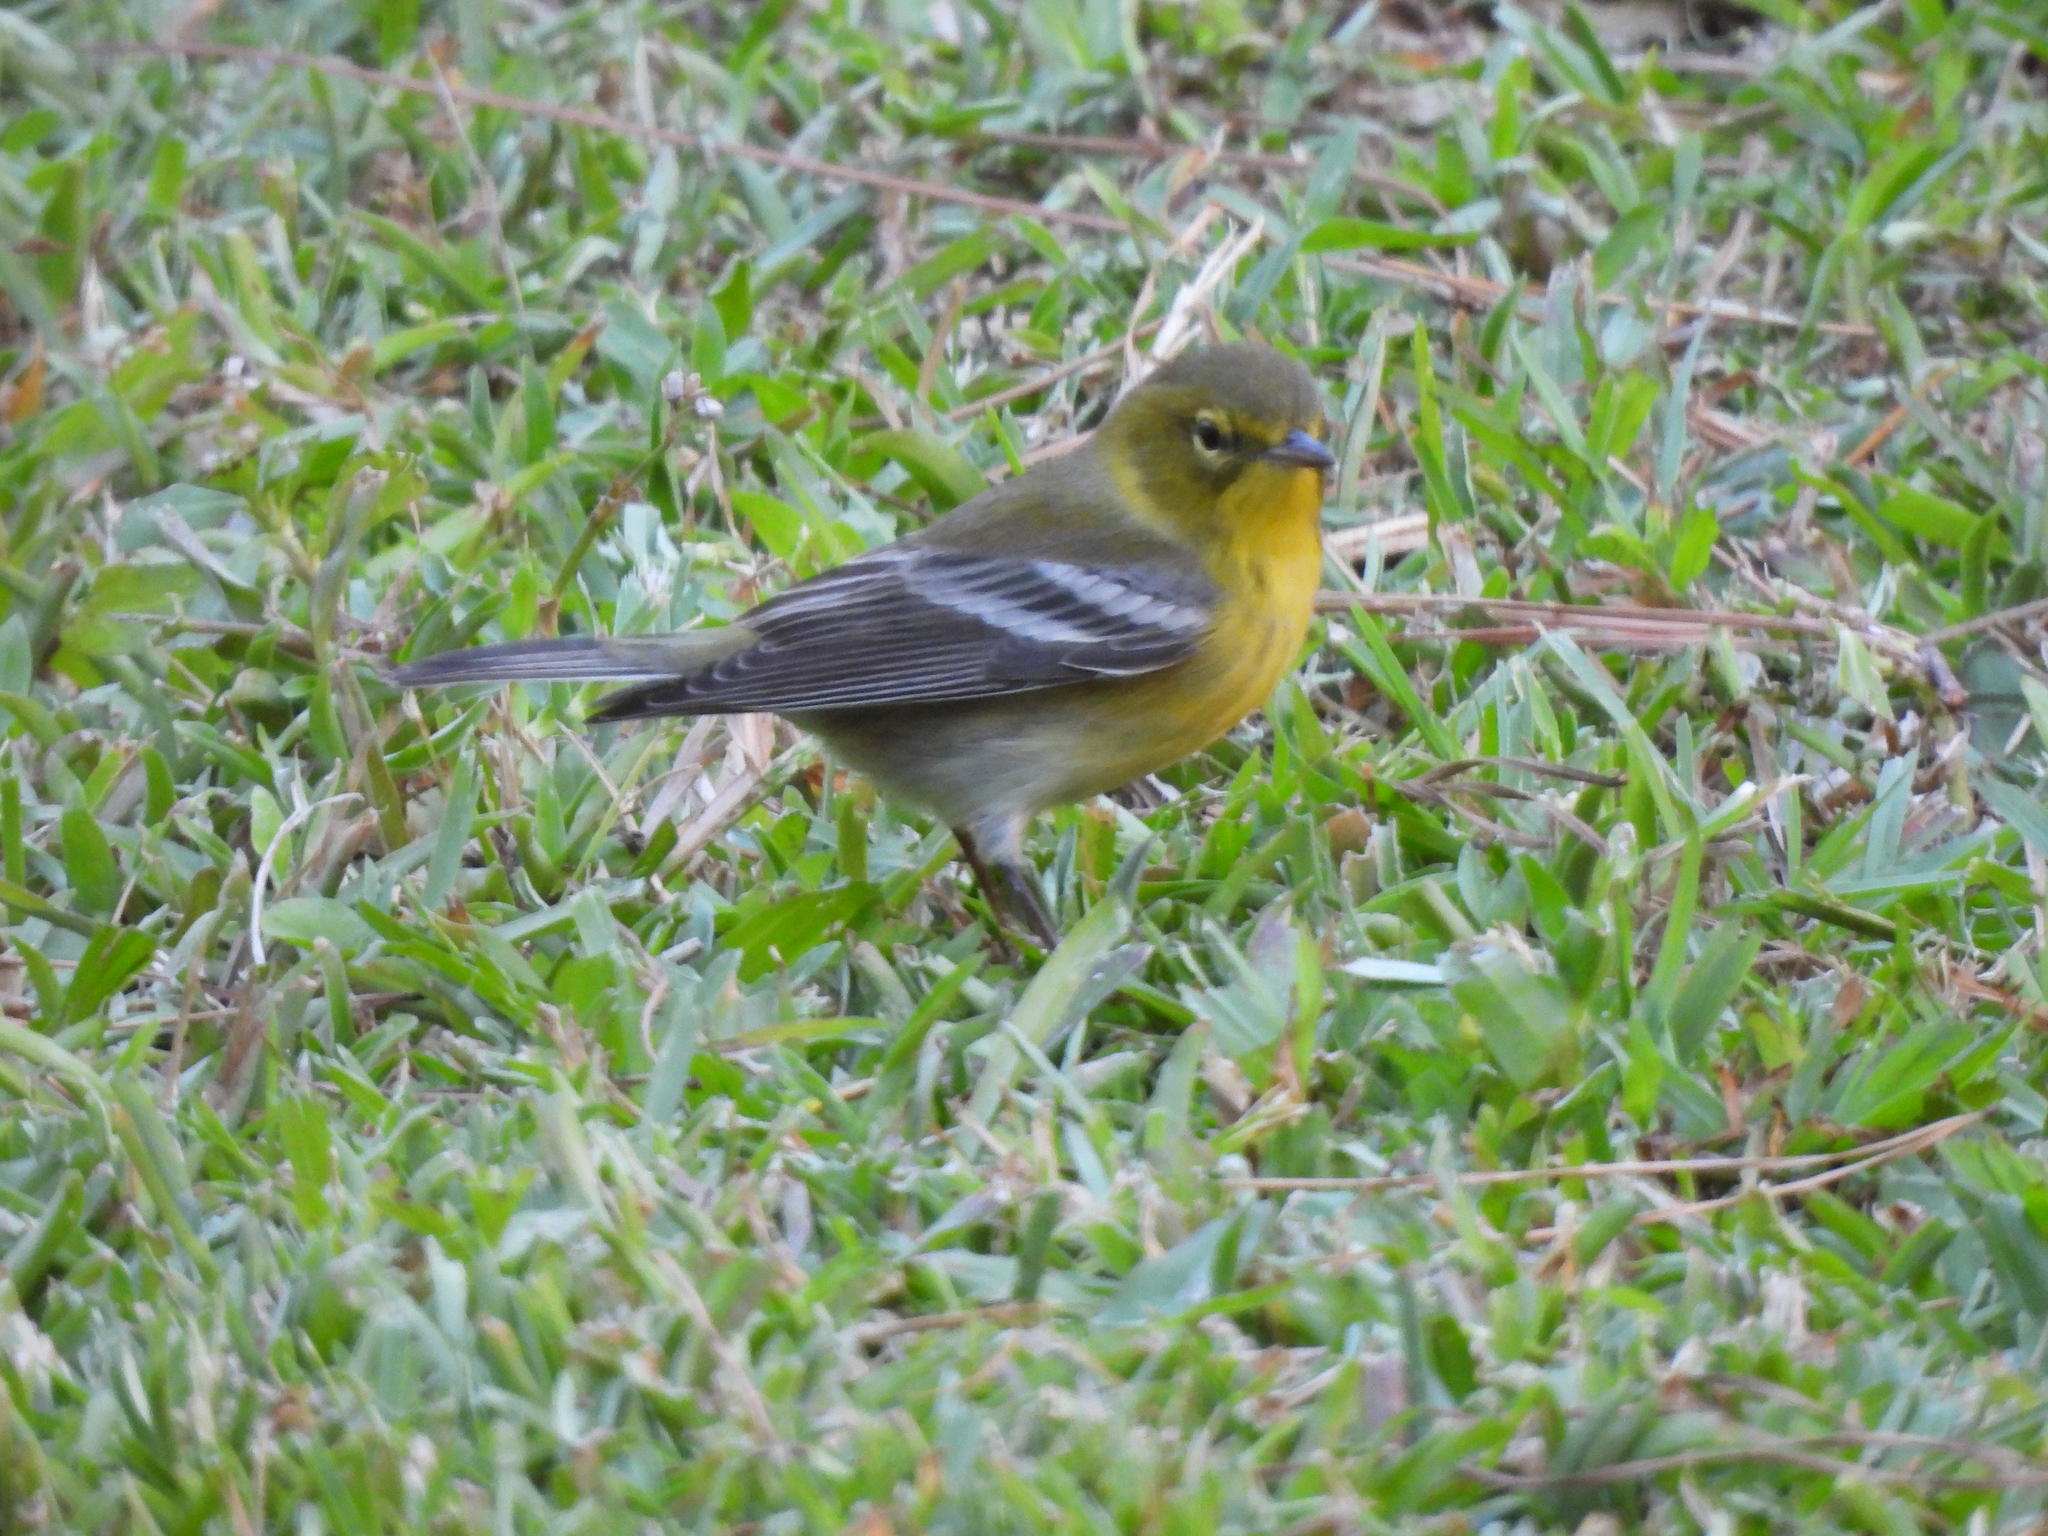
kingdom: Animalia
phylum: Chordata
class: Aves
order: Passeriformes
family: Parulidae
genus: Setophaga
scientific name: Setophaga pinus
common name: Pine warbler
